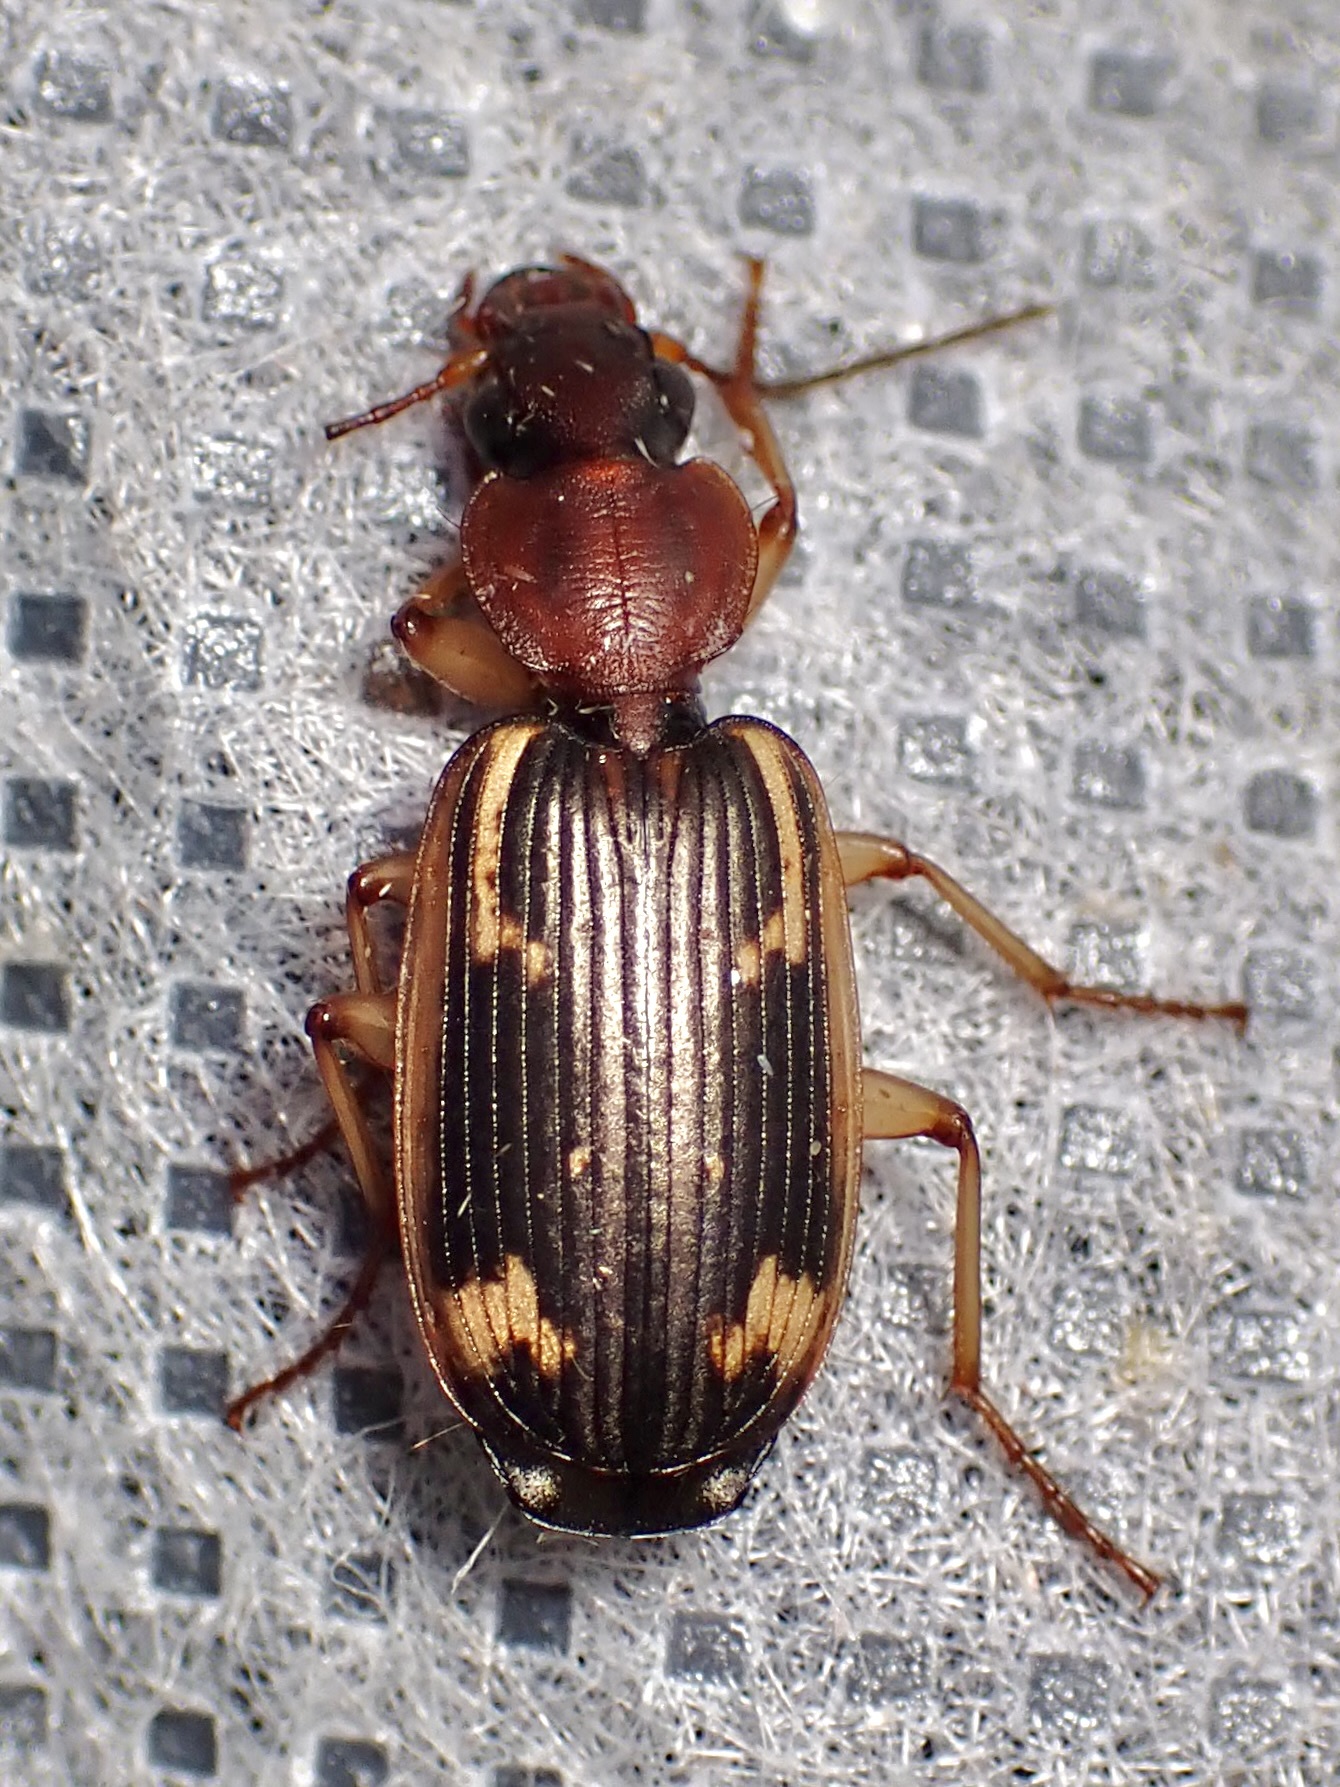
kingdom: Animalia
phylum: Arthropoda
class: Insecta
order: Coleoptera
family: Carabidae
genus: Apenes
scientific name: Apenes hilariola
